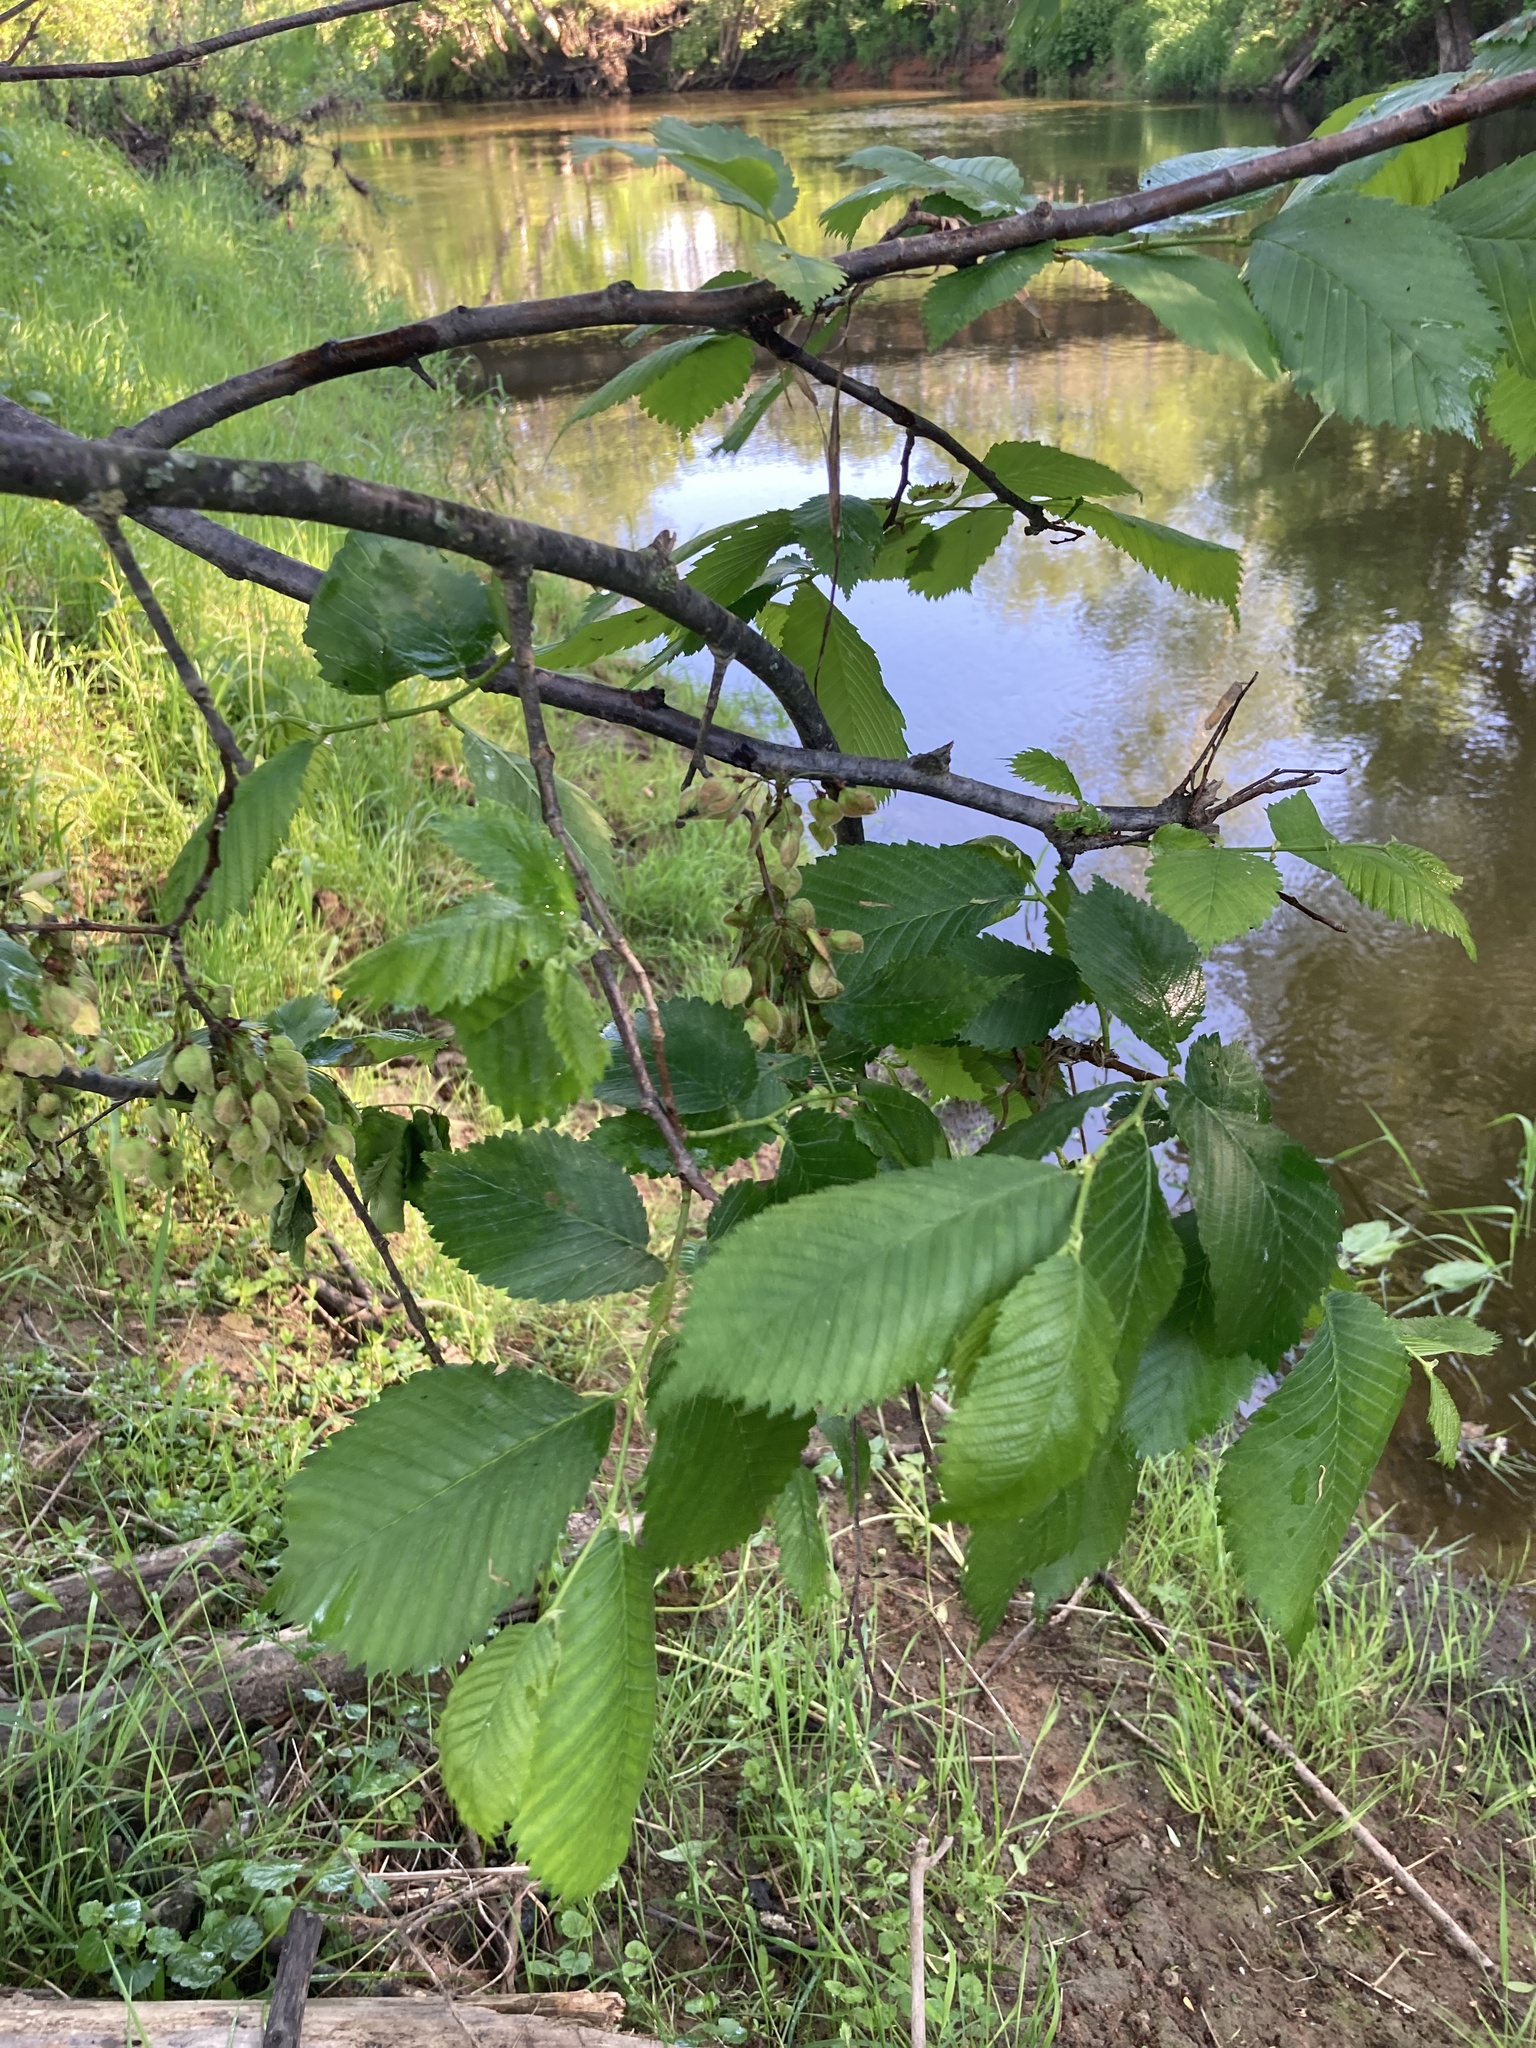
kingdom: Plantae
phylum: Tracheophyta
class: Magnoliopsida
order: Rosales
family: Ulmaceae
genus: Ulmus
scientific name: Ulmus laevis
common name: European white-elm
